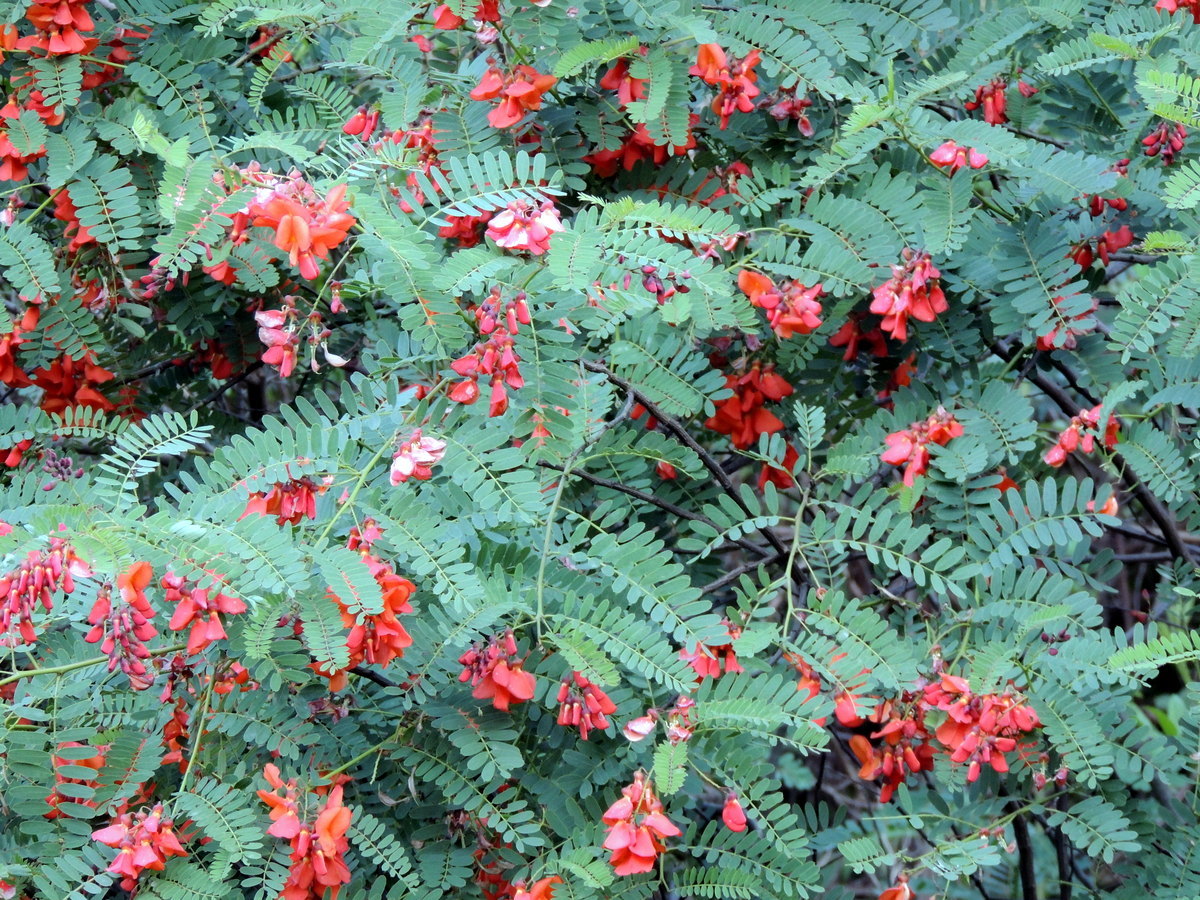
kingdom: Plantae
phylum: Tracheophyta
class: Magnoliopsida
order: Fabales
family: Fabaceae
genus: Sesbania
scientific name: Sesbania punicea
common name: Rattlebox
